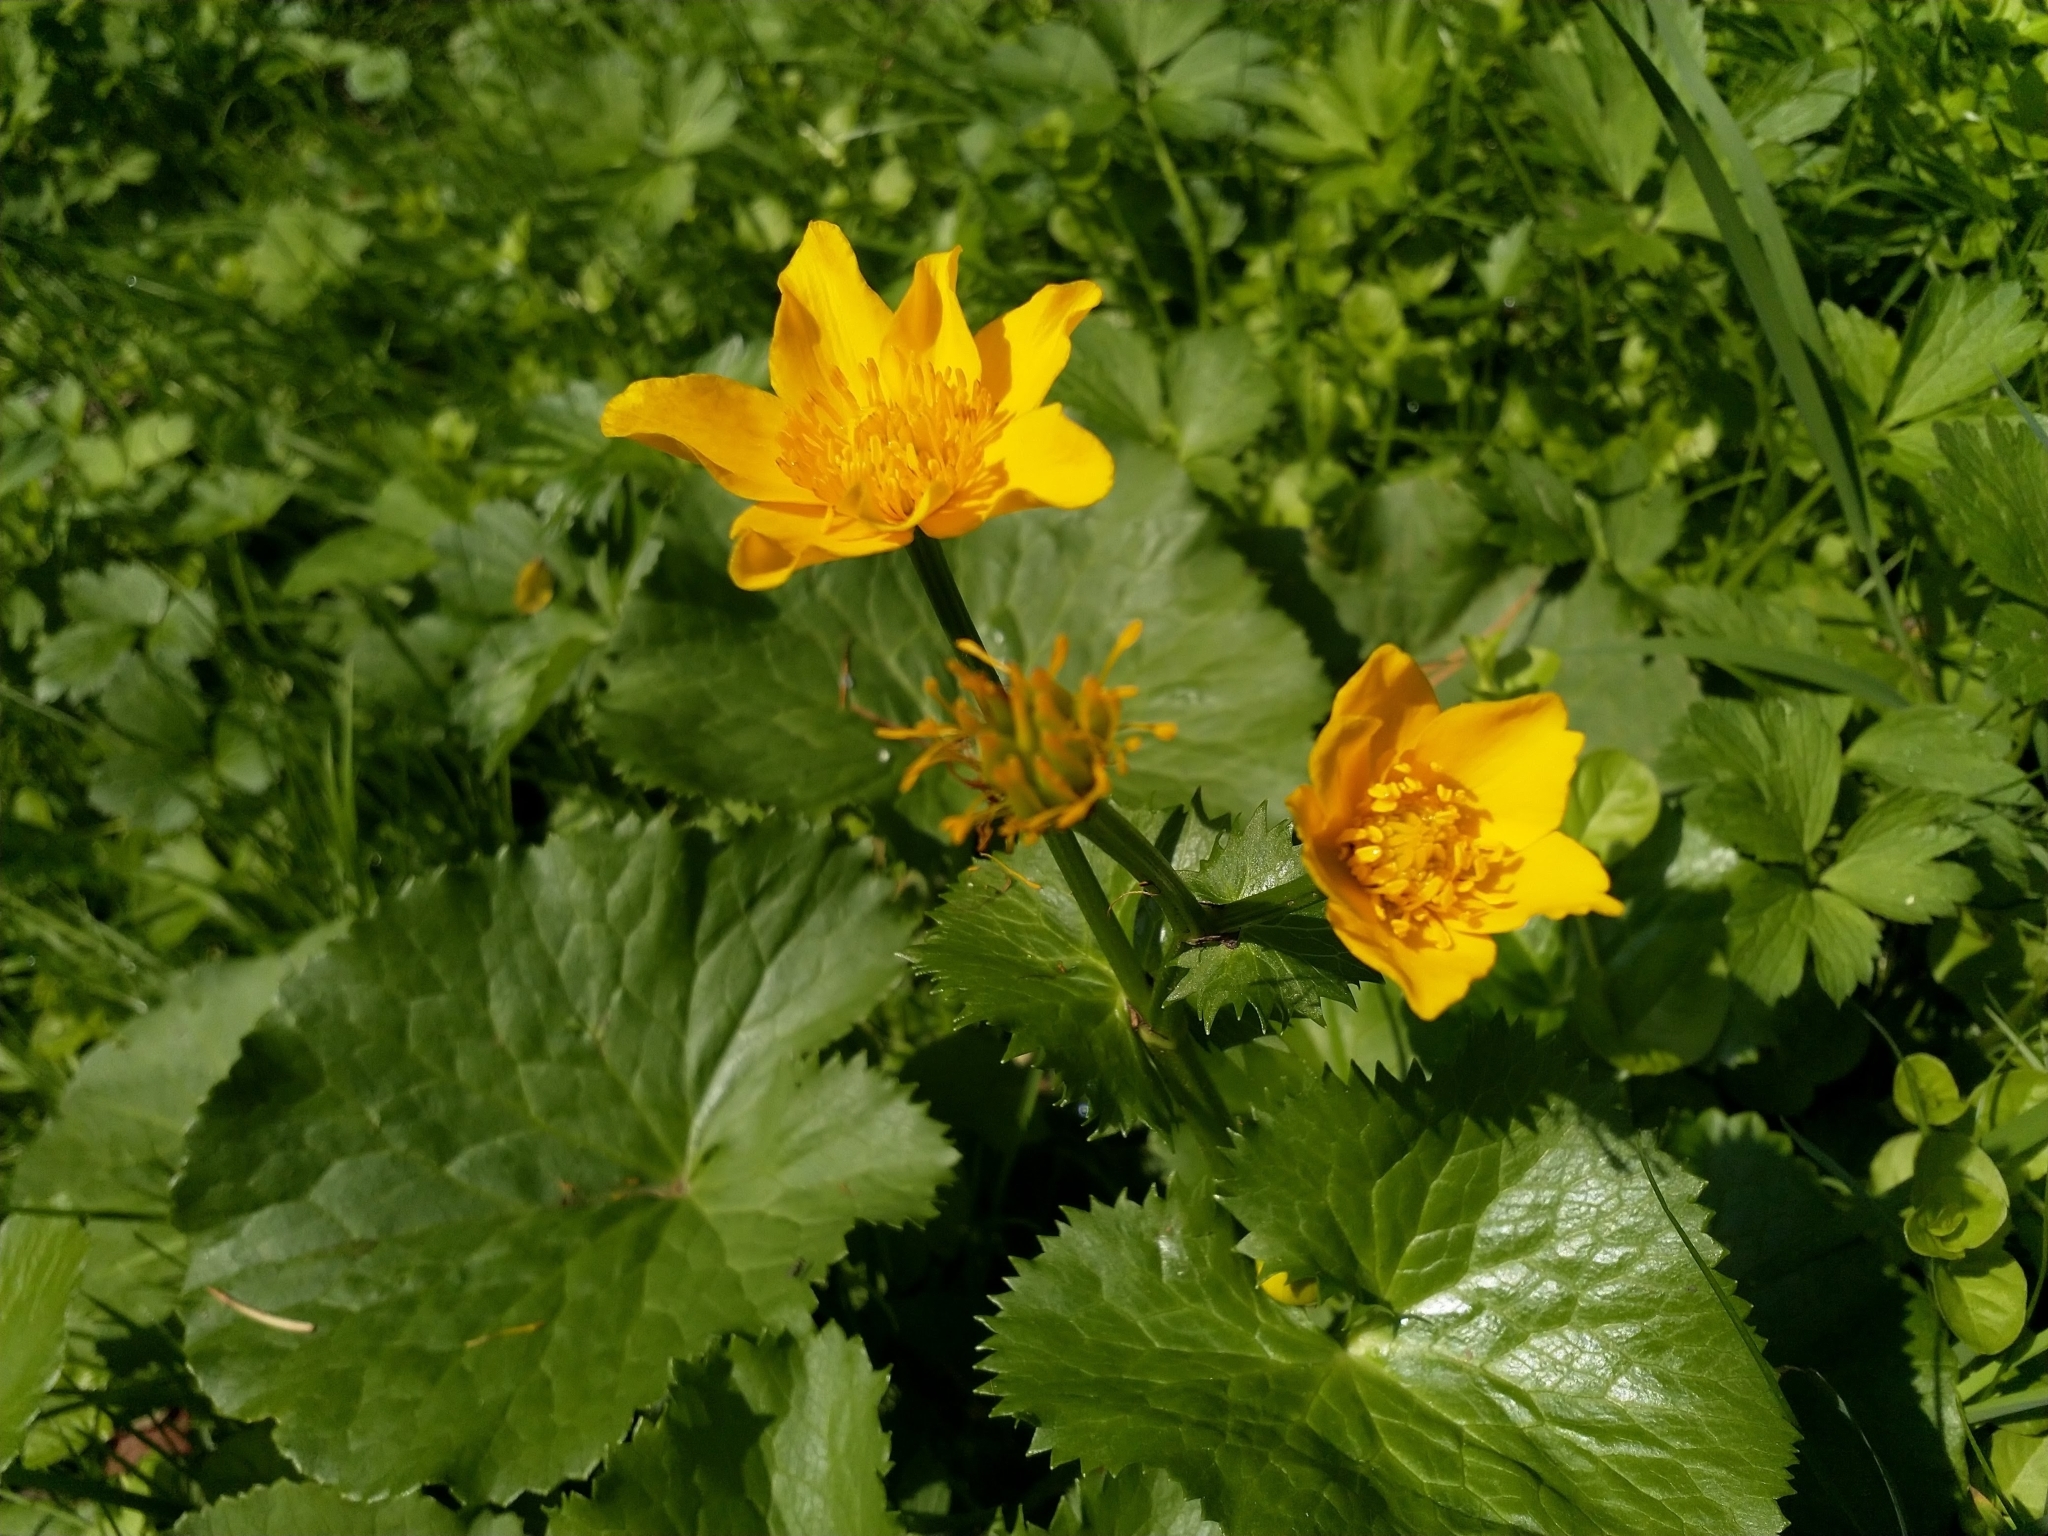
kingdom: Plantae
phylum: Tracheophyta
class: Magnoliopsida
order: Ranunculales
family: Ranunculaceae
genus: Caltha
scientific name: Caltha palustris
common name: Marsh marigold
